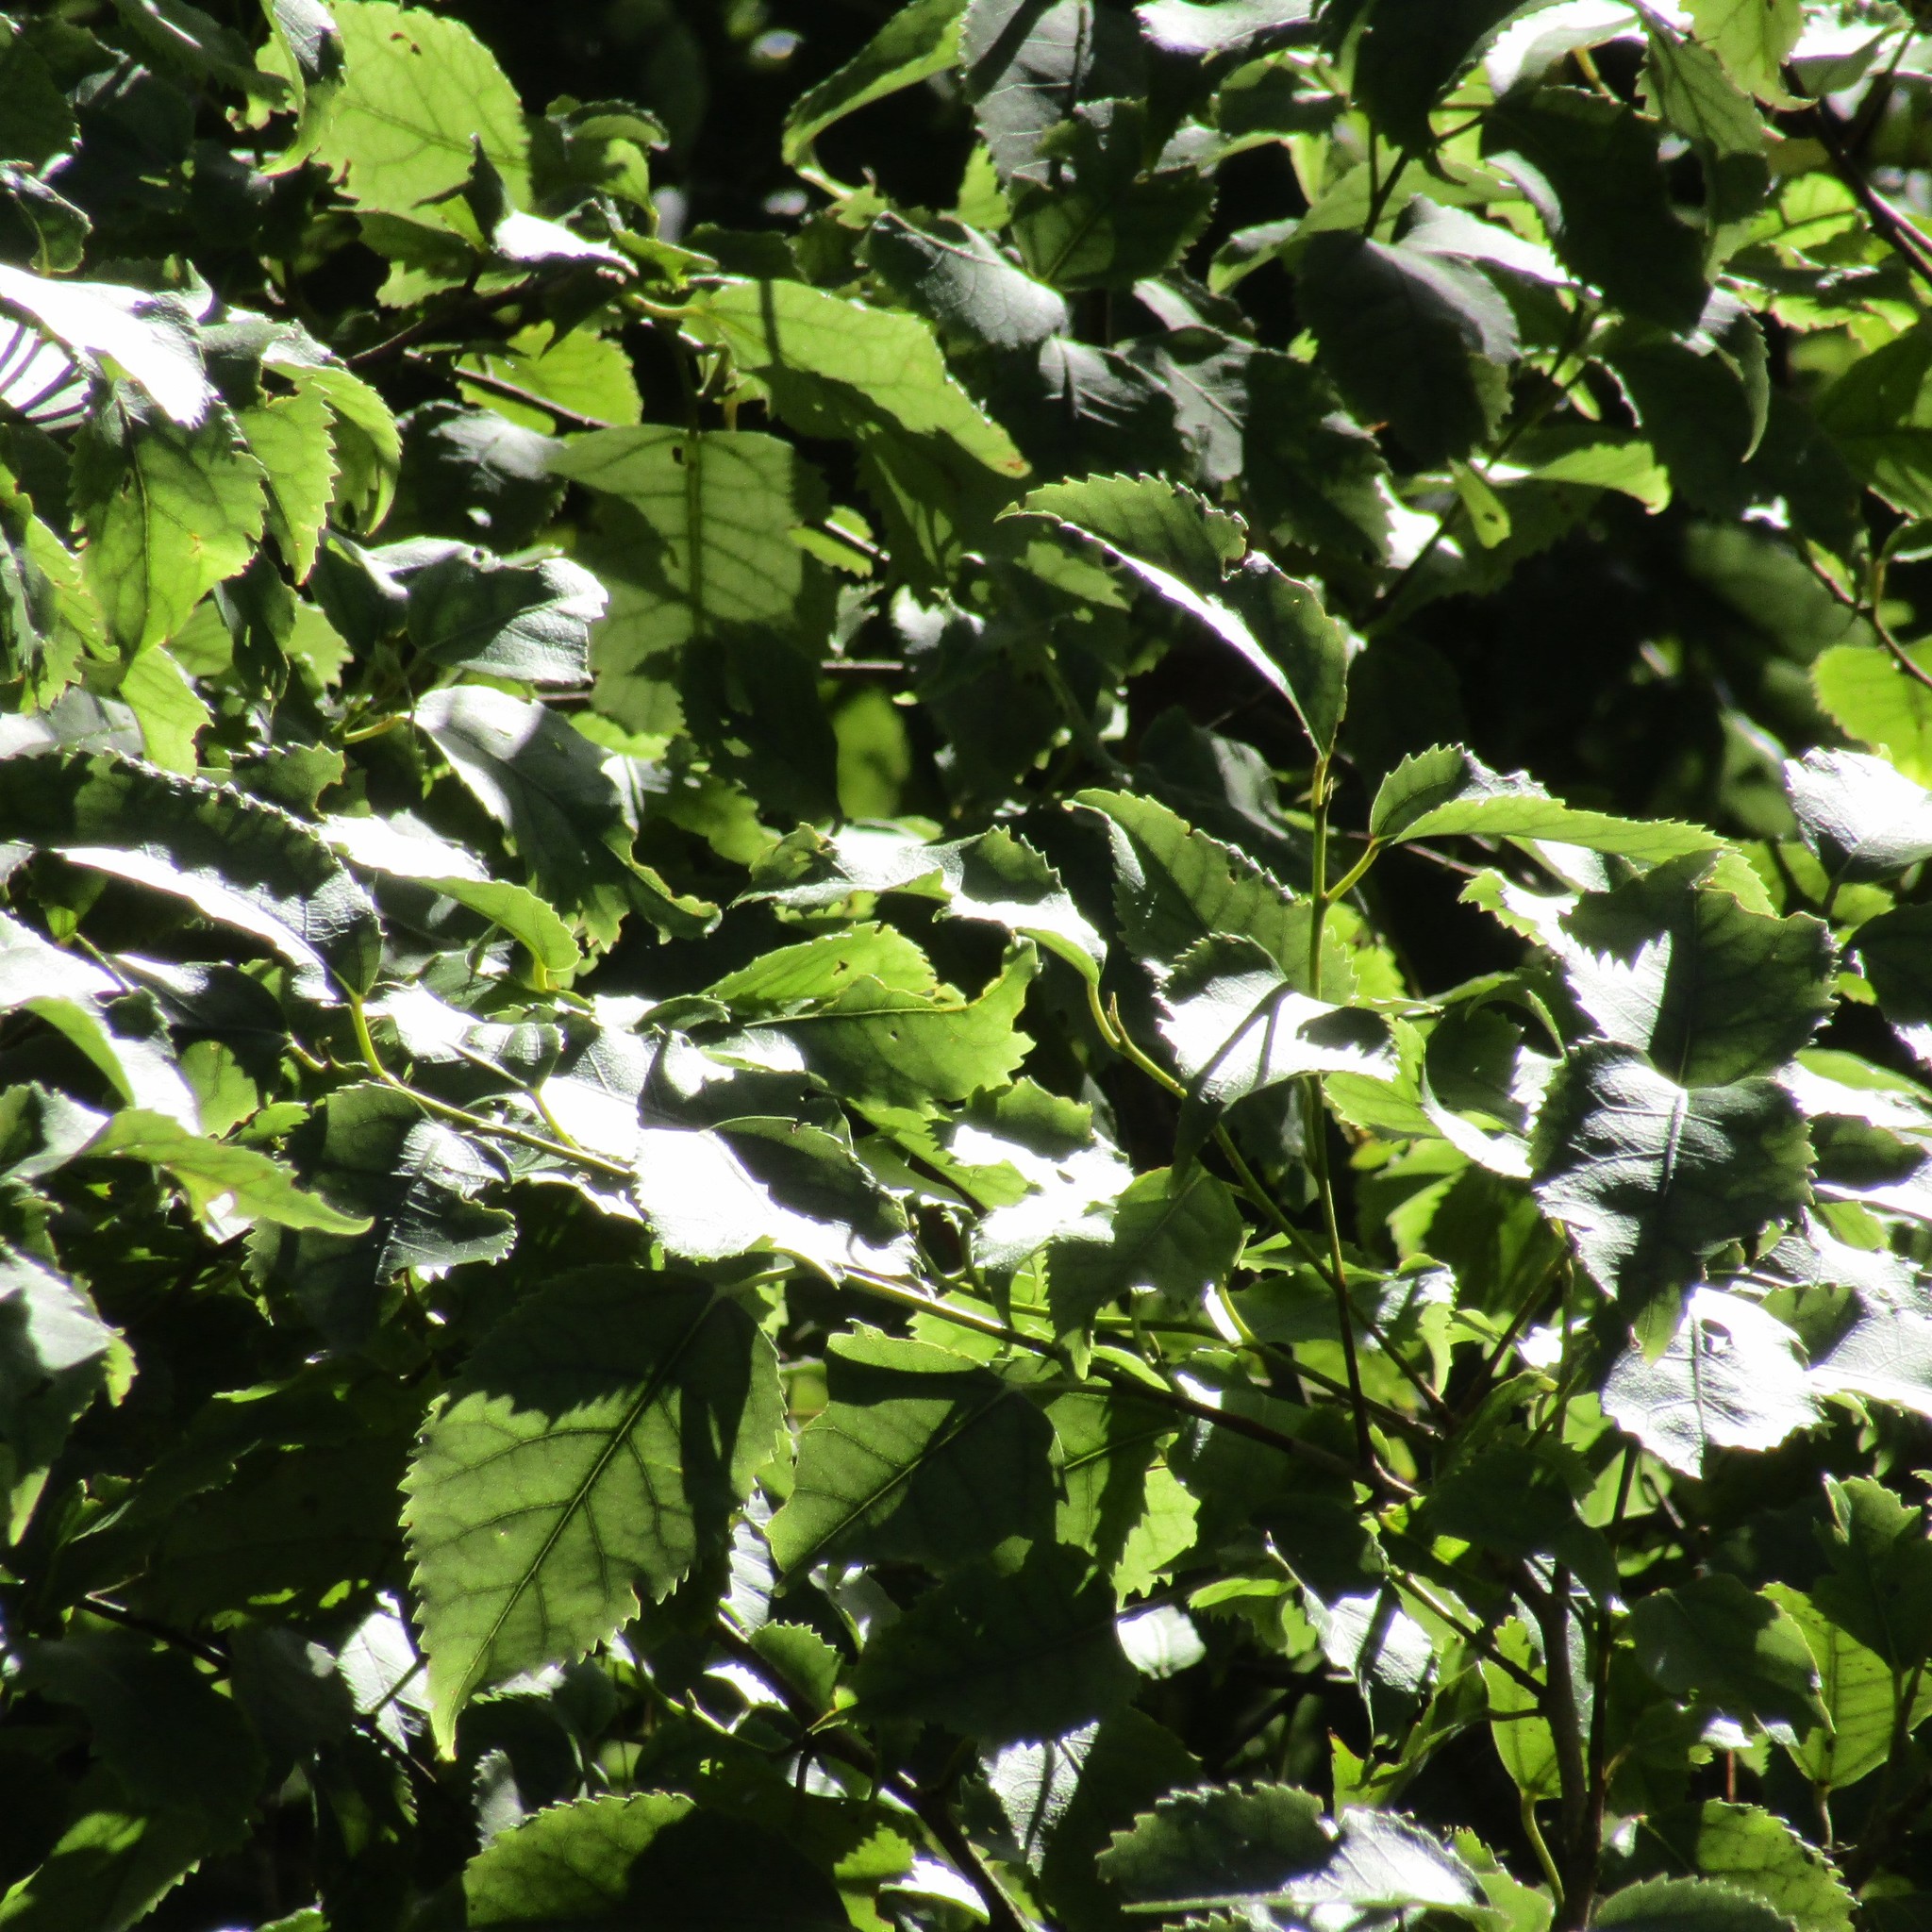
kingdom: Plantae
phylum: Tracheophyta
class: Magnoliopsida
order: Malvales
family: Malvaceae
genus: Hoheria
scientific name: Hoheria populnea
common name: Lacebark
